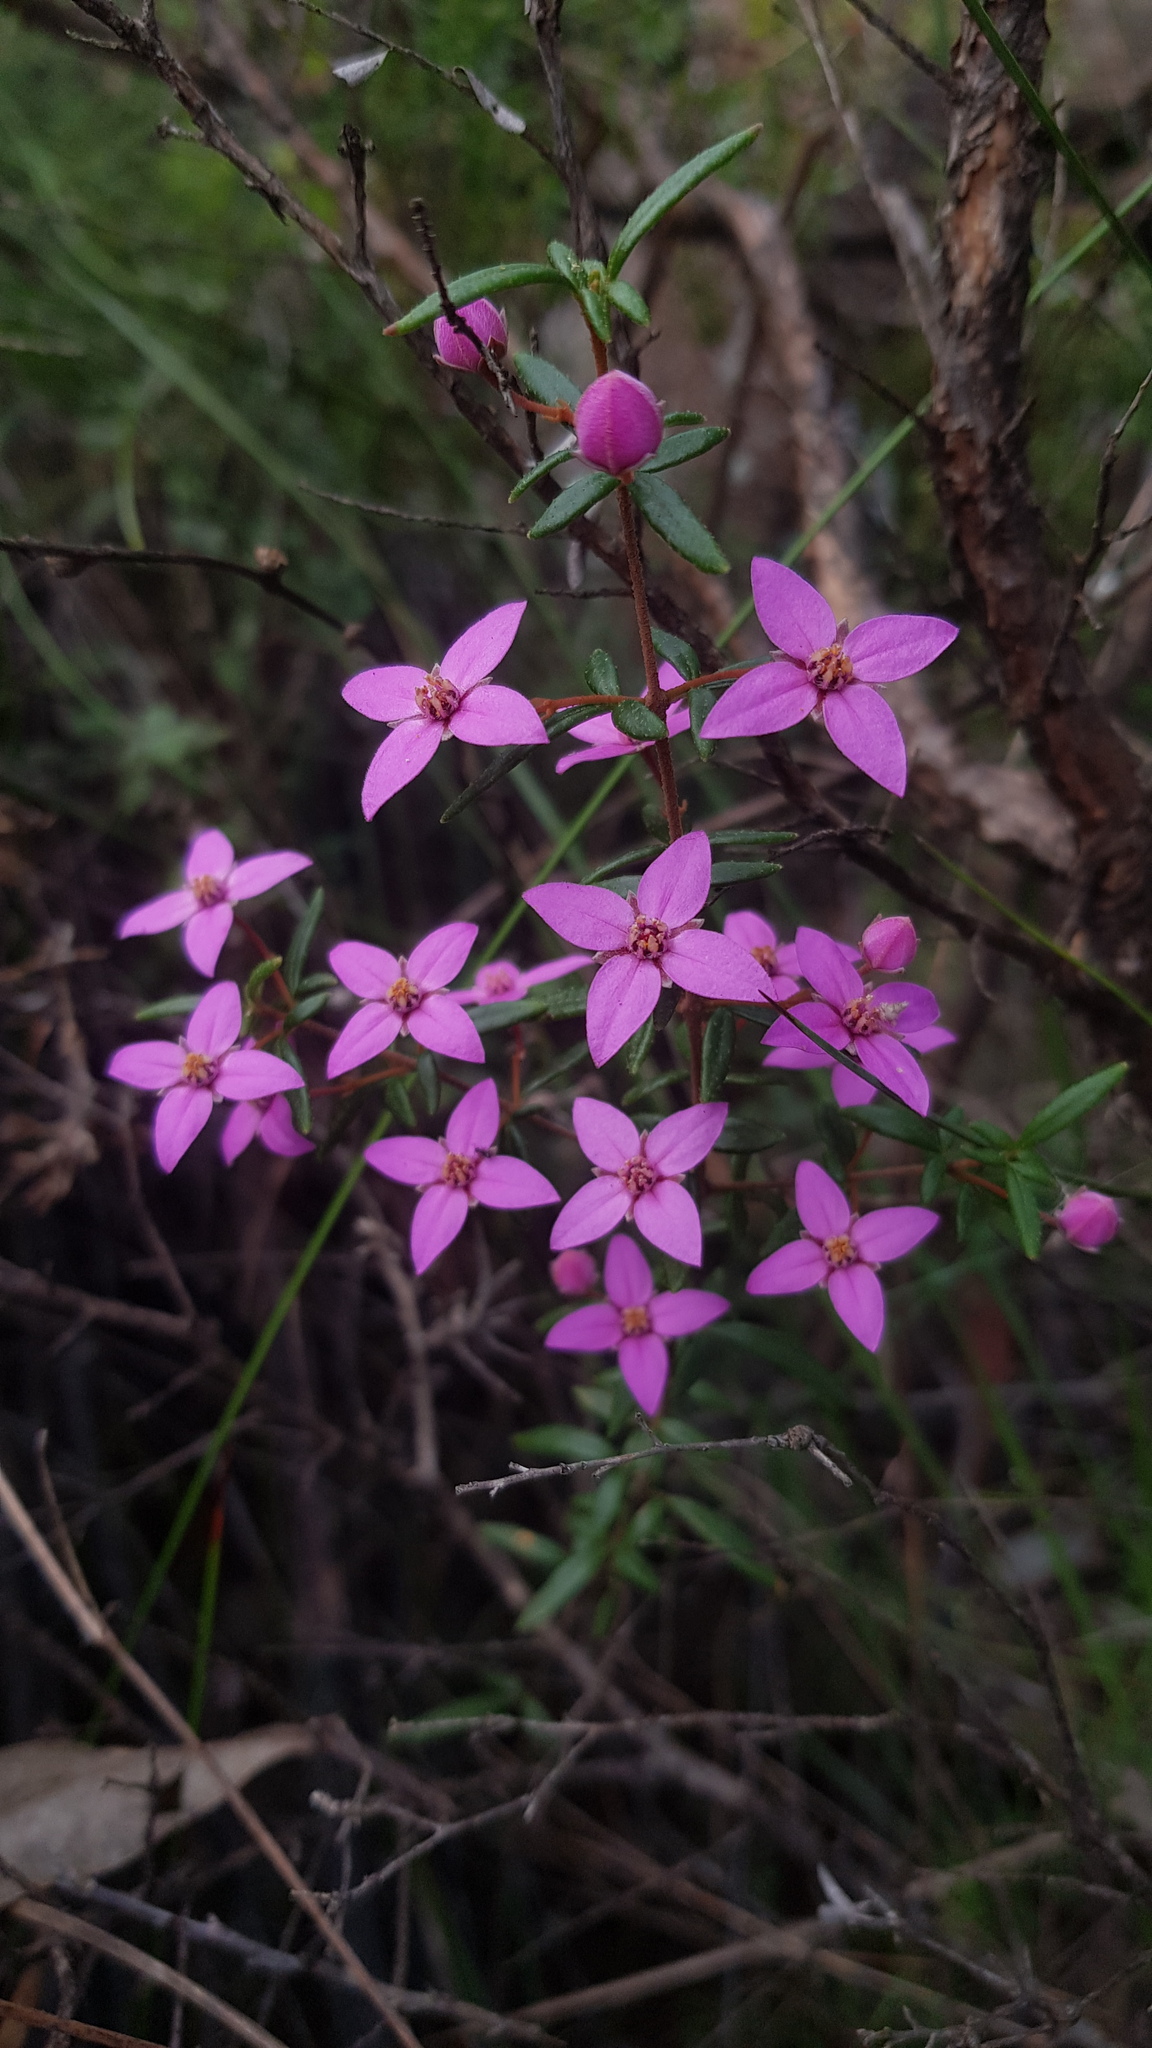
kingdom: Plantae
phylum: Tracheophyta
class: Magnoliopsida
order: Sapindales
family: Rutaceae
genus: Boronia
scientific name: Boronia ledifolia
